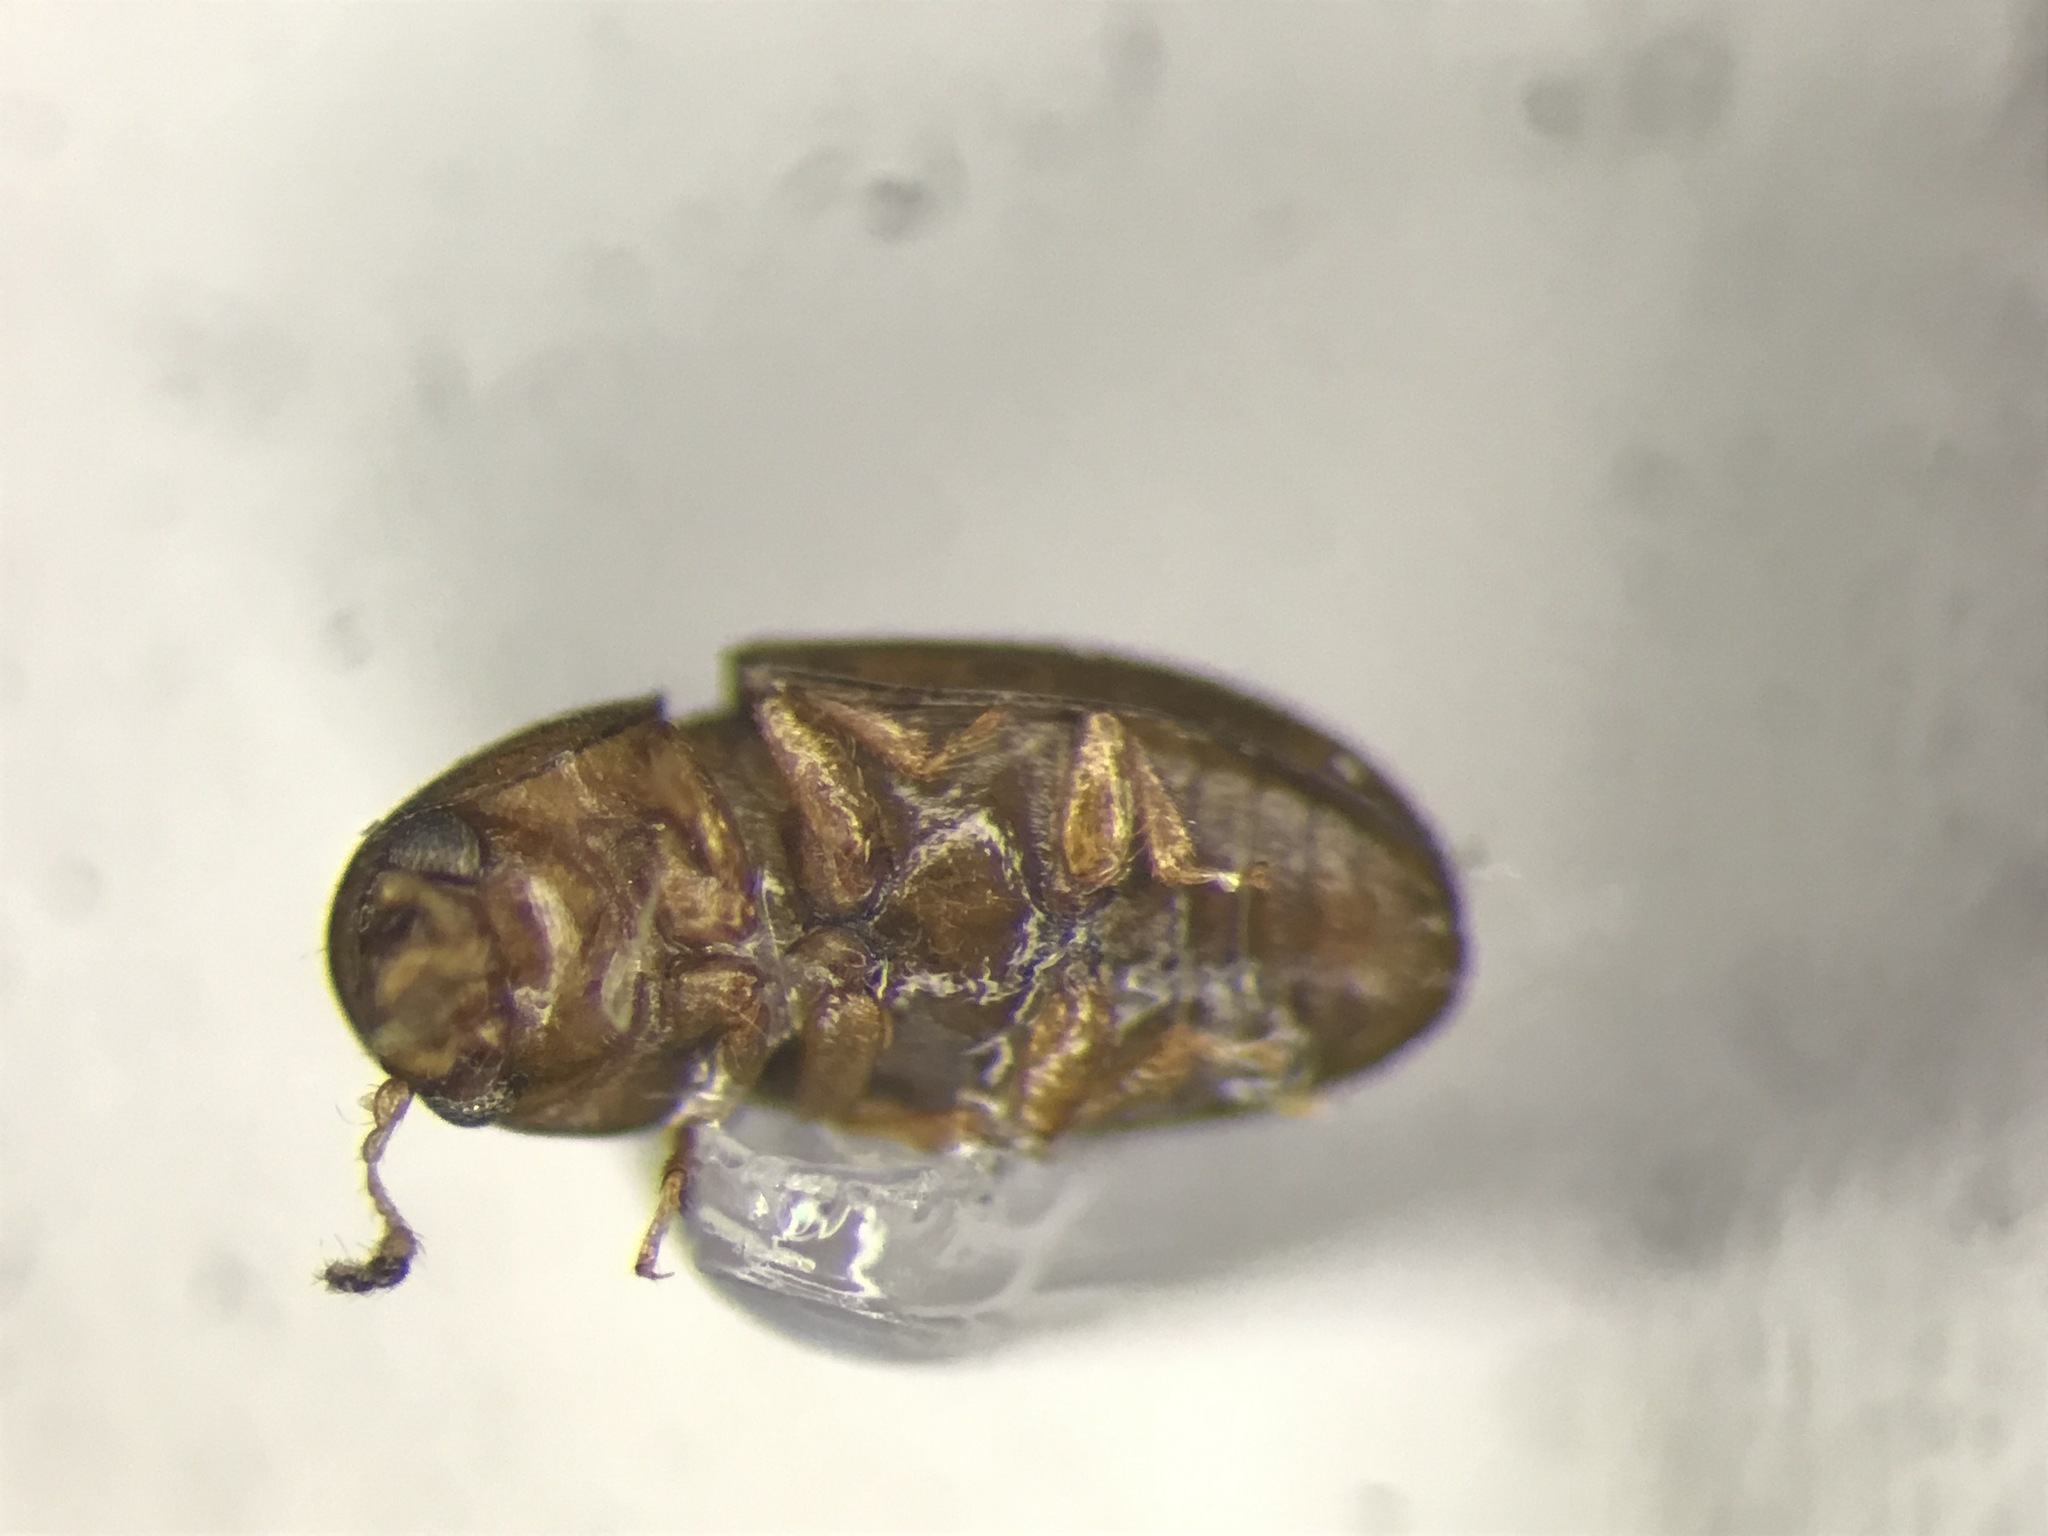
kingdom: Animalia
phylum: Arthropoda
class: Insecta
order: Coleoptera
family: Ciidae
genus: Octotemnus
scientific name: Octotemnus glabriculus
